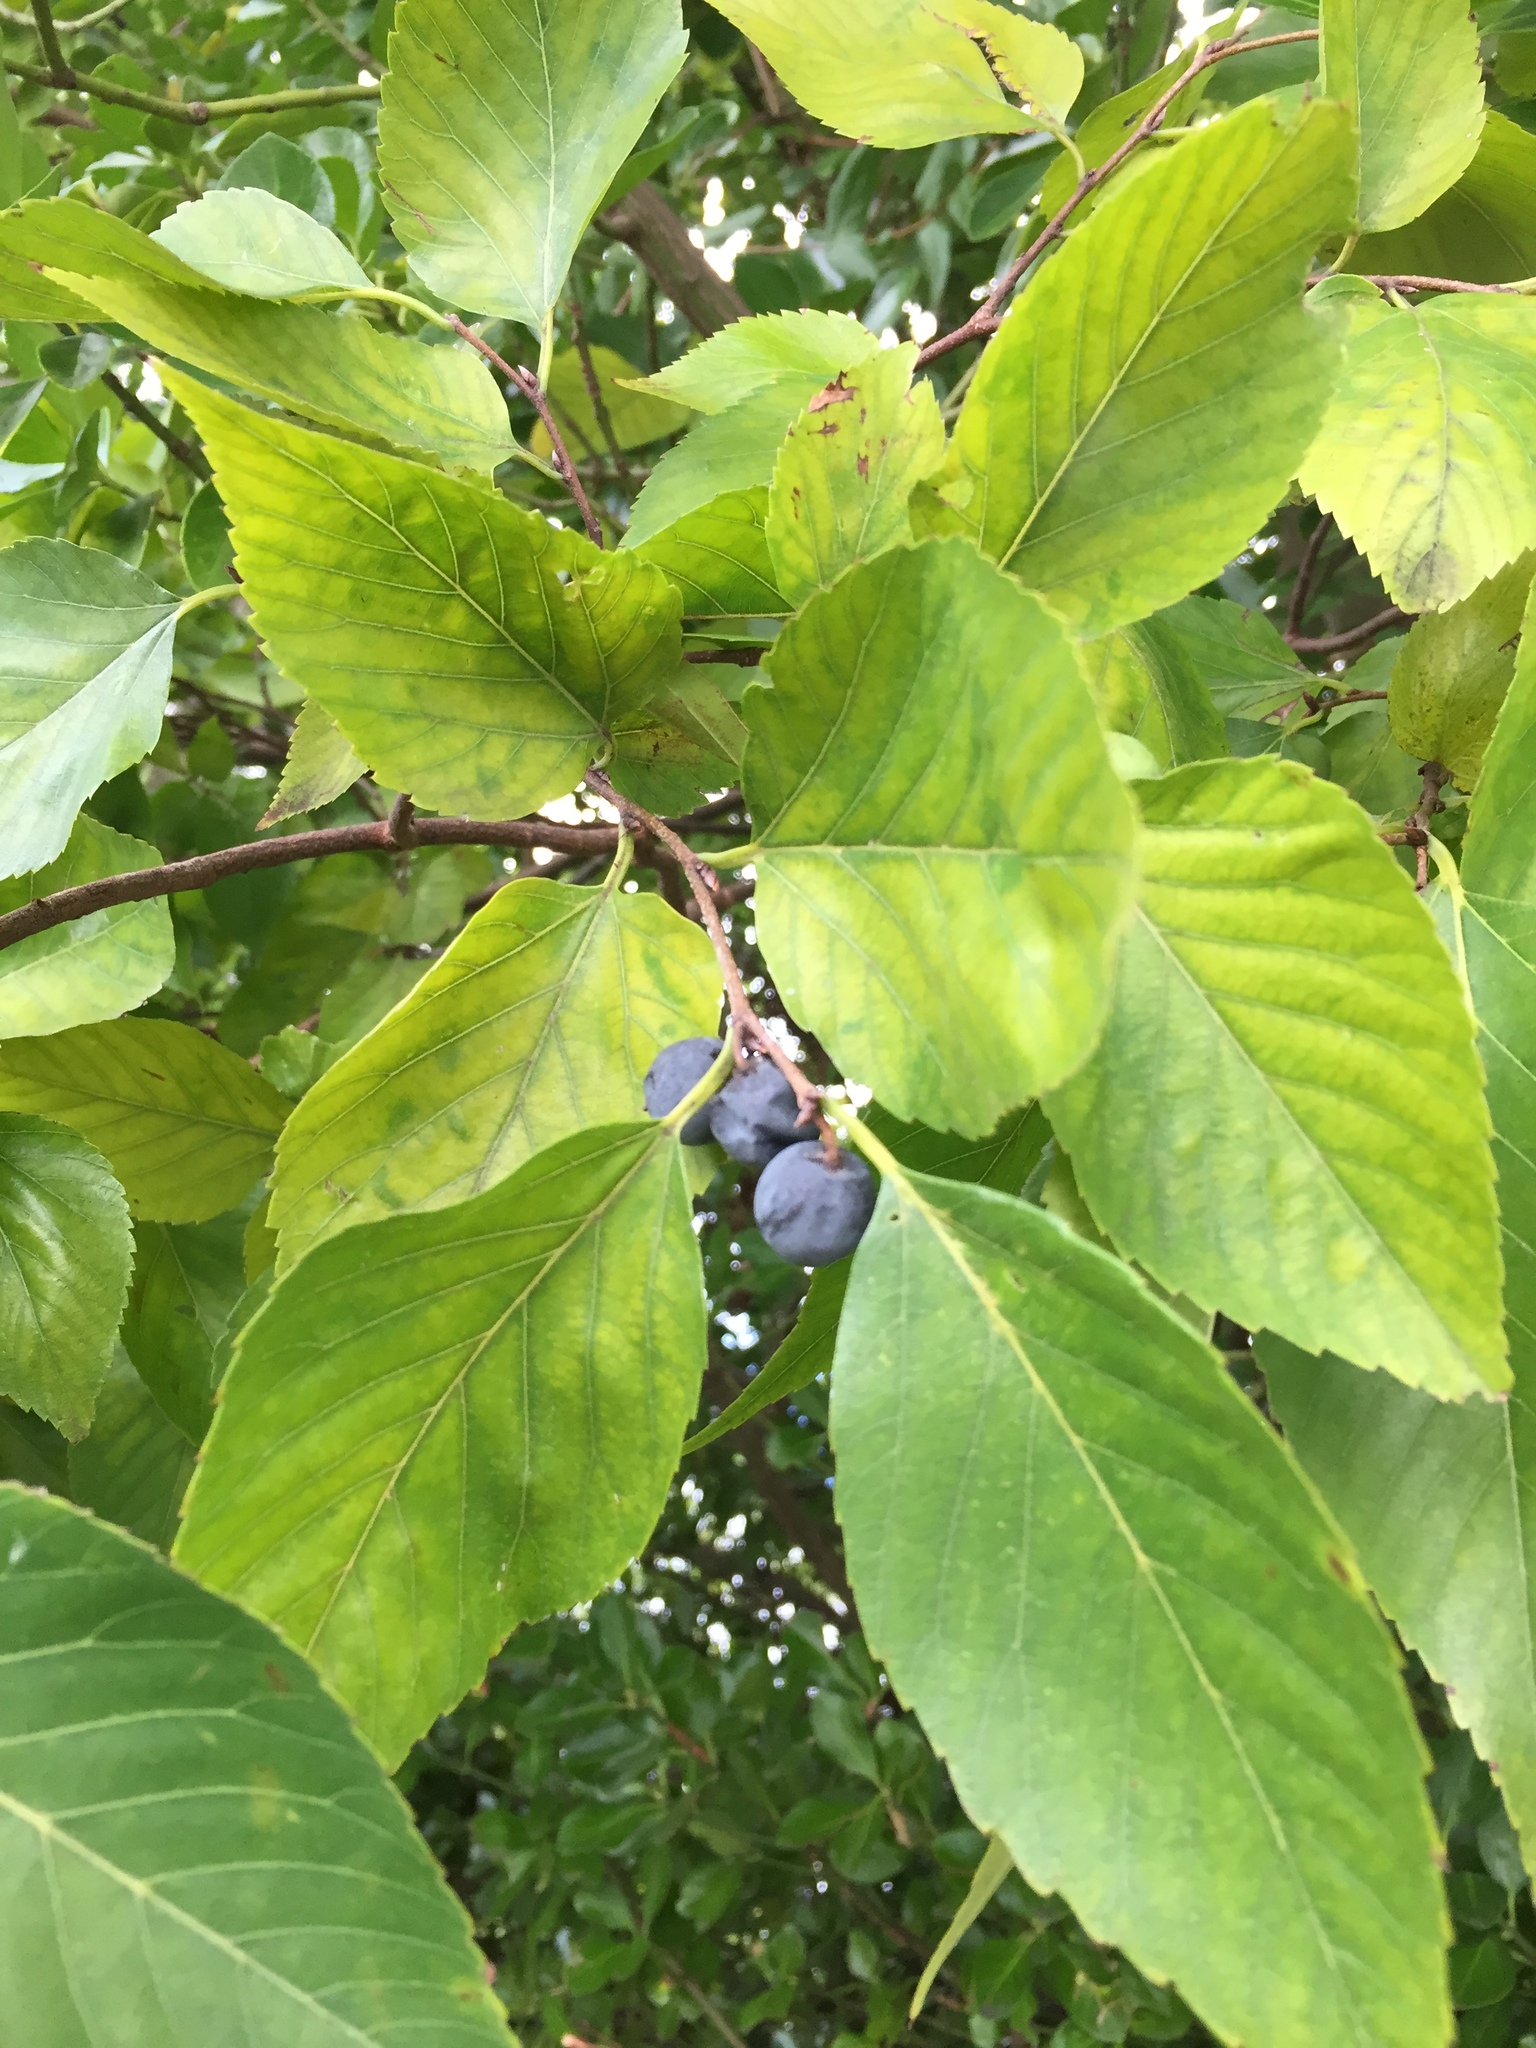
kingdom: Plantae
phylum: Tracheophyta
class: Magnoliopsida
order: Rosales
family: Cannabaceae
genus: Aphananthe
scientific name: Aphananthe aspera
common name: Mukutree
